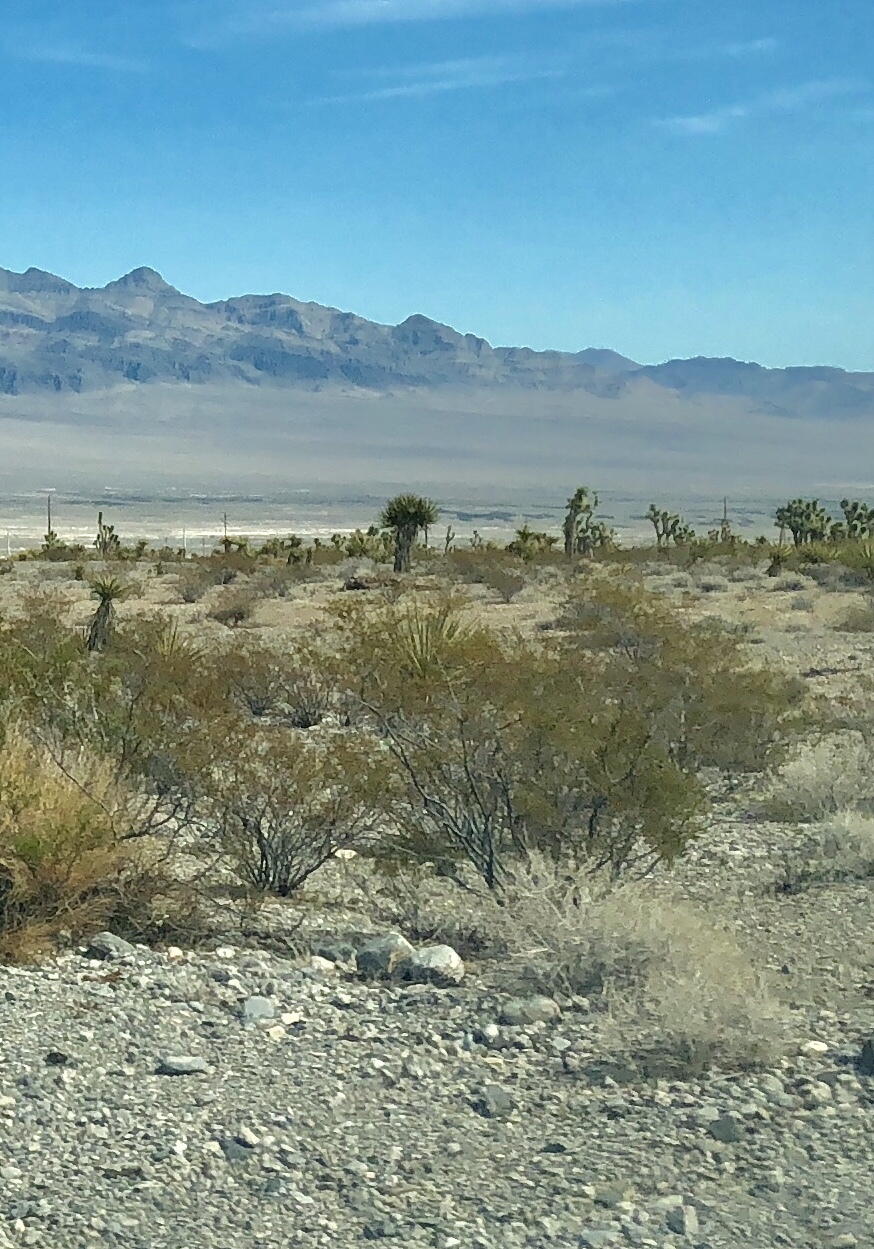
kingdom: Plantae
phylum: Tracheophyta
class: Magnoliopsida
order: Zygophyllales
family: Zygophyllaceae
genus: Larrea
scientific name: Larrea tridentata
